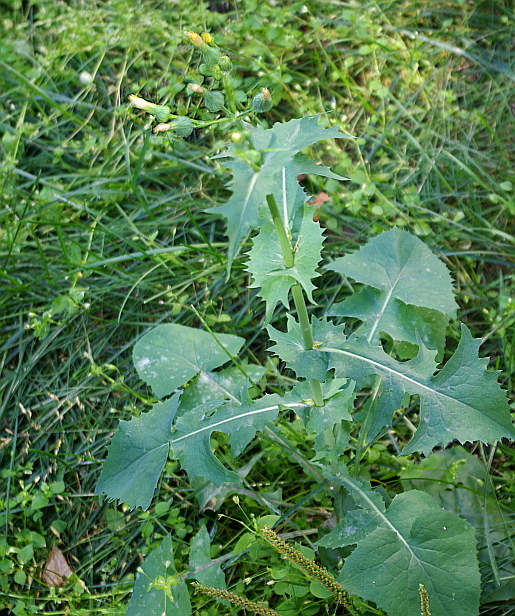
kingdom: Plantae
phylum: Tracheophyta
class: Magnoliopsida
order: Asterales
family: Asteraceae
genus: Sonchus
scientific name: Sonchus oleraceus
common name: Common sowthistle
